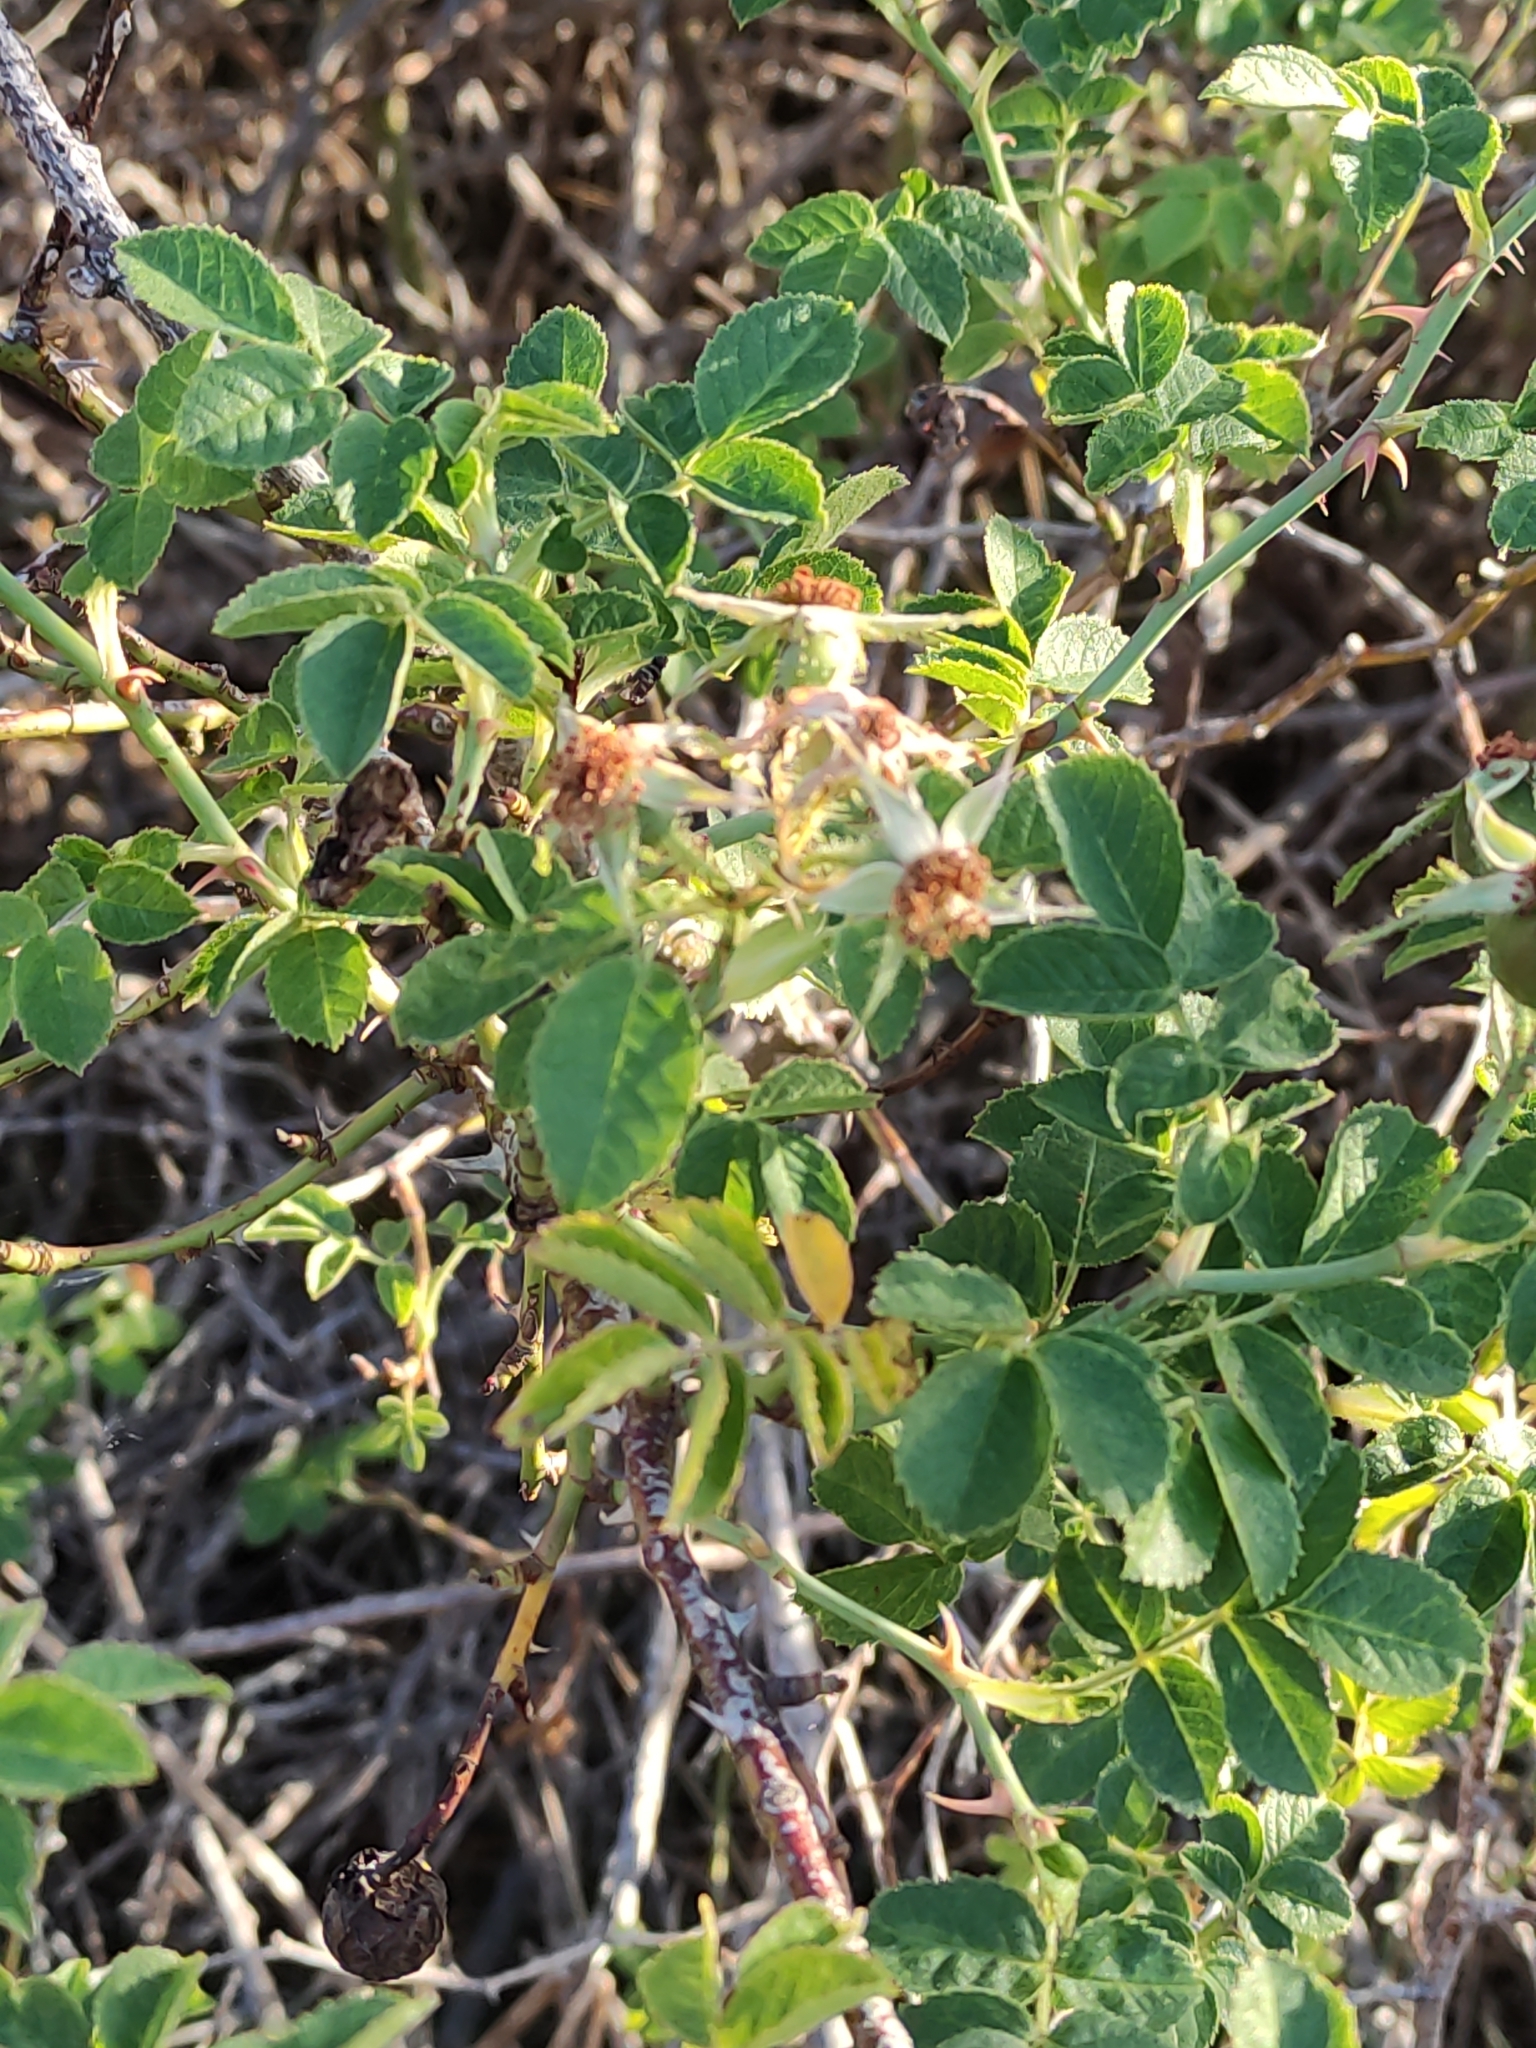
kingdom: Plantae
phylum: Tracheophyta
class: Magnoliopsida
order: Rosales
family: Rosaceae
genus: Rosa
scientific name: Rosa rubiginosa
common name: Sweet-briar
